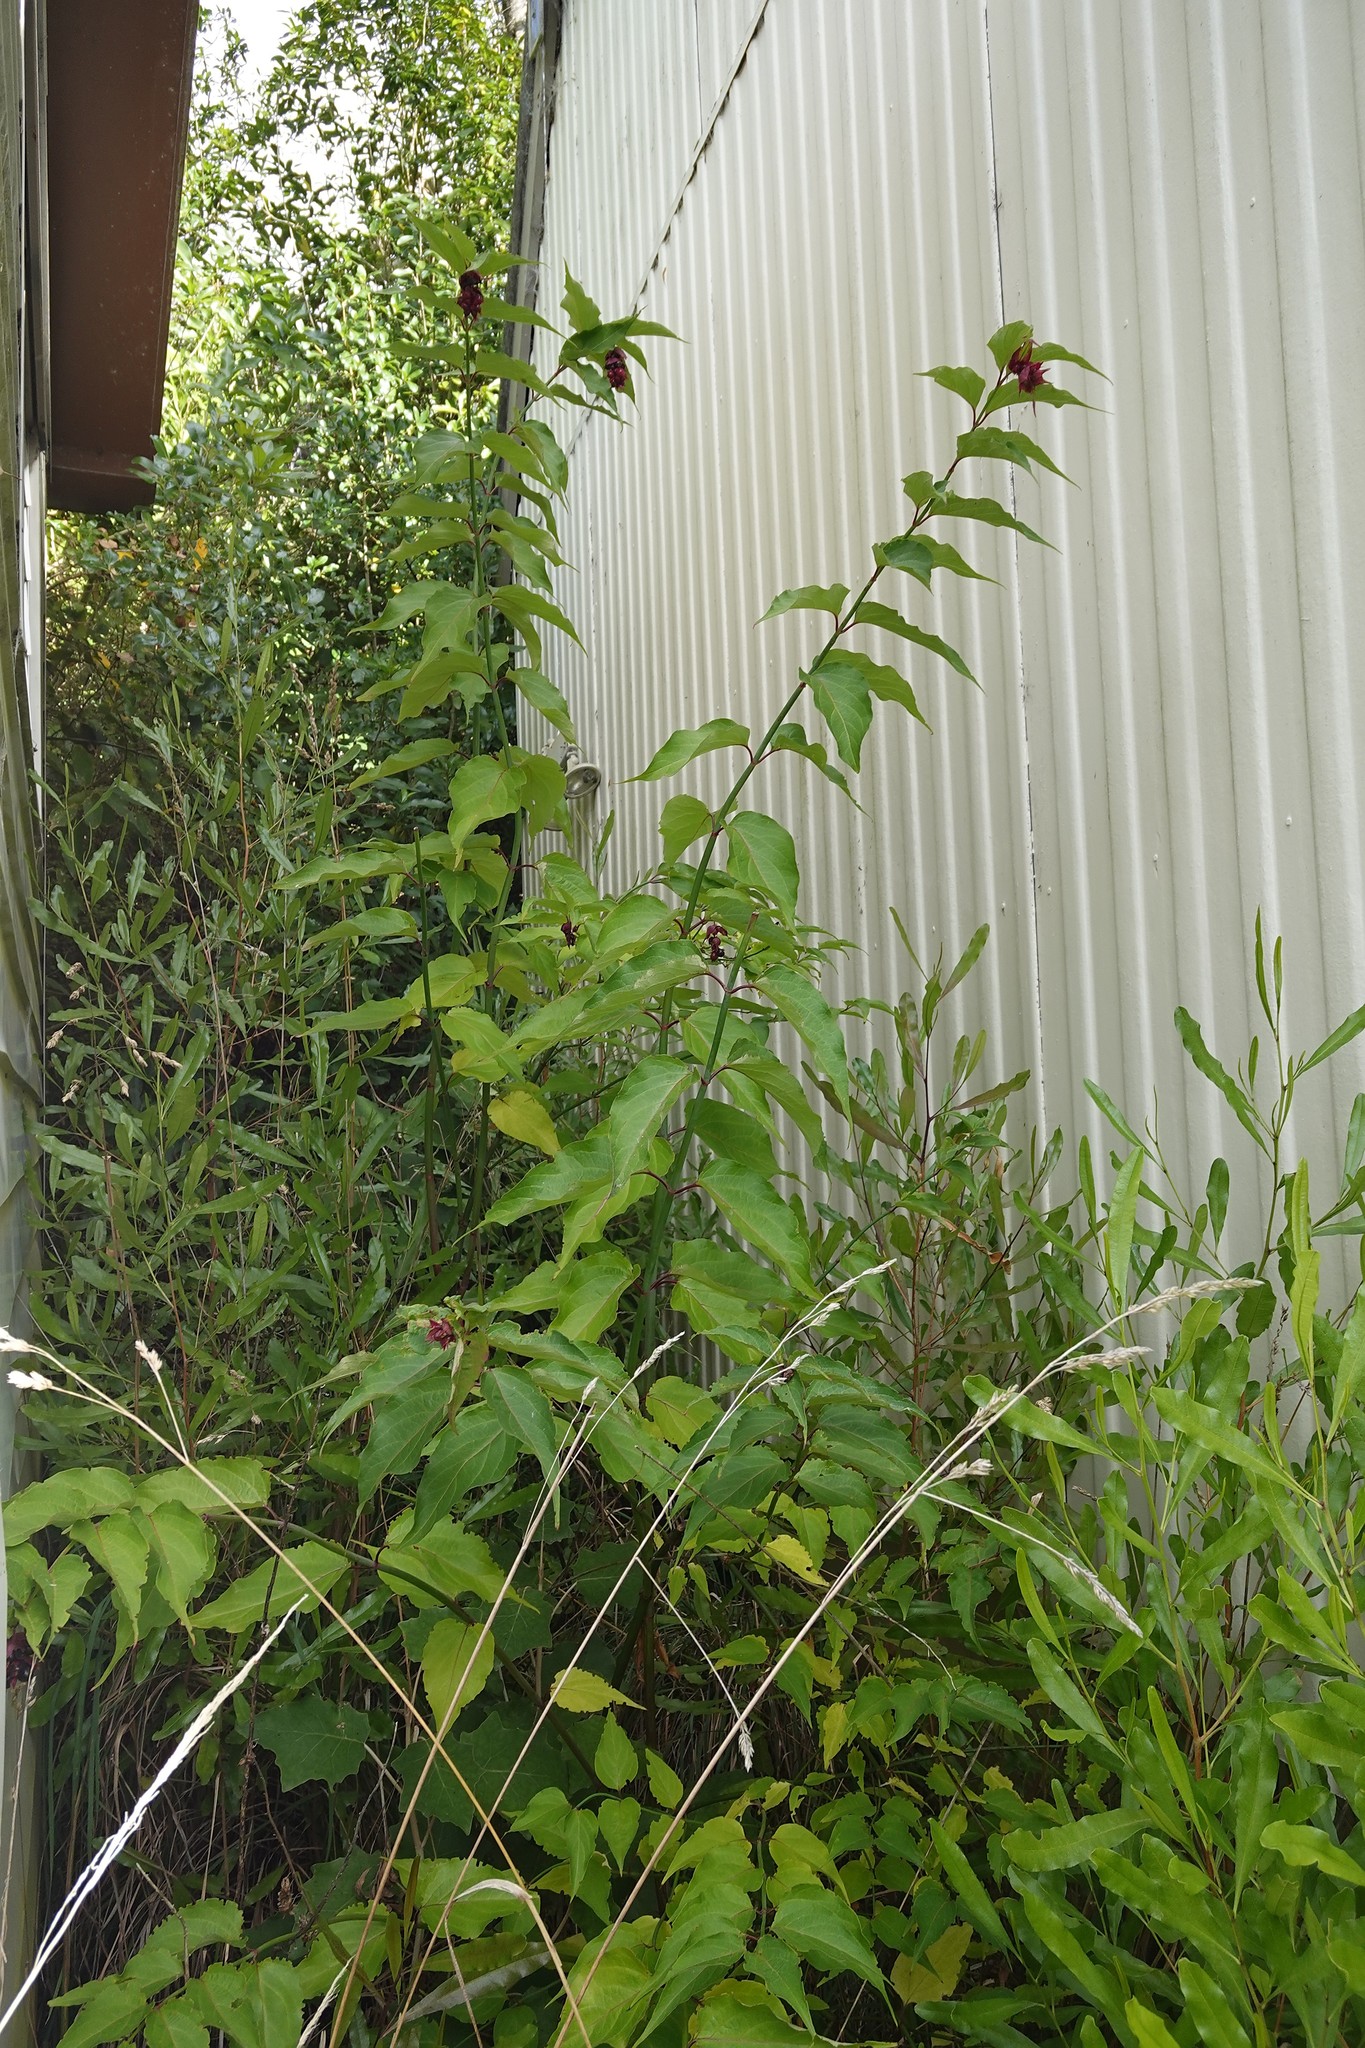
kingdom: Plantae
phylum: Tracheophyta
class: Magnoliopsida
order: Dipsacales
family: Caprifoliaceae
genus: Leycesteria
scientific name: Leycesteria formosa
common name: Himalayan honeysuckle
